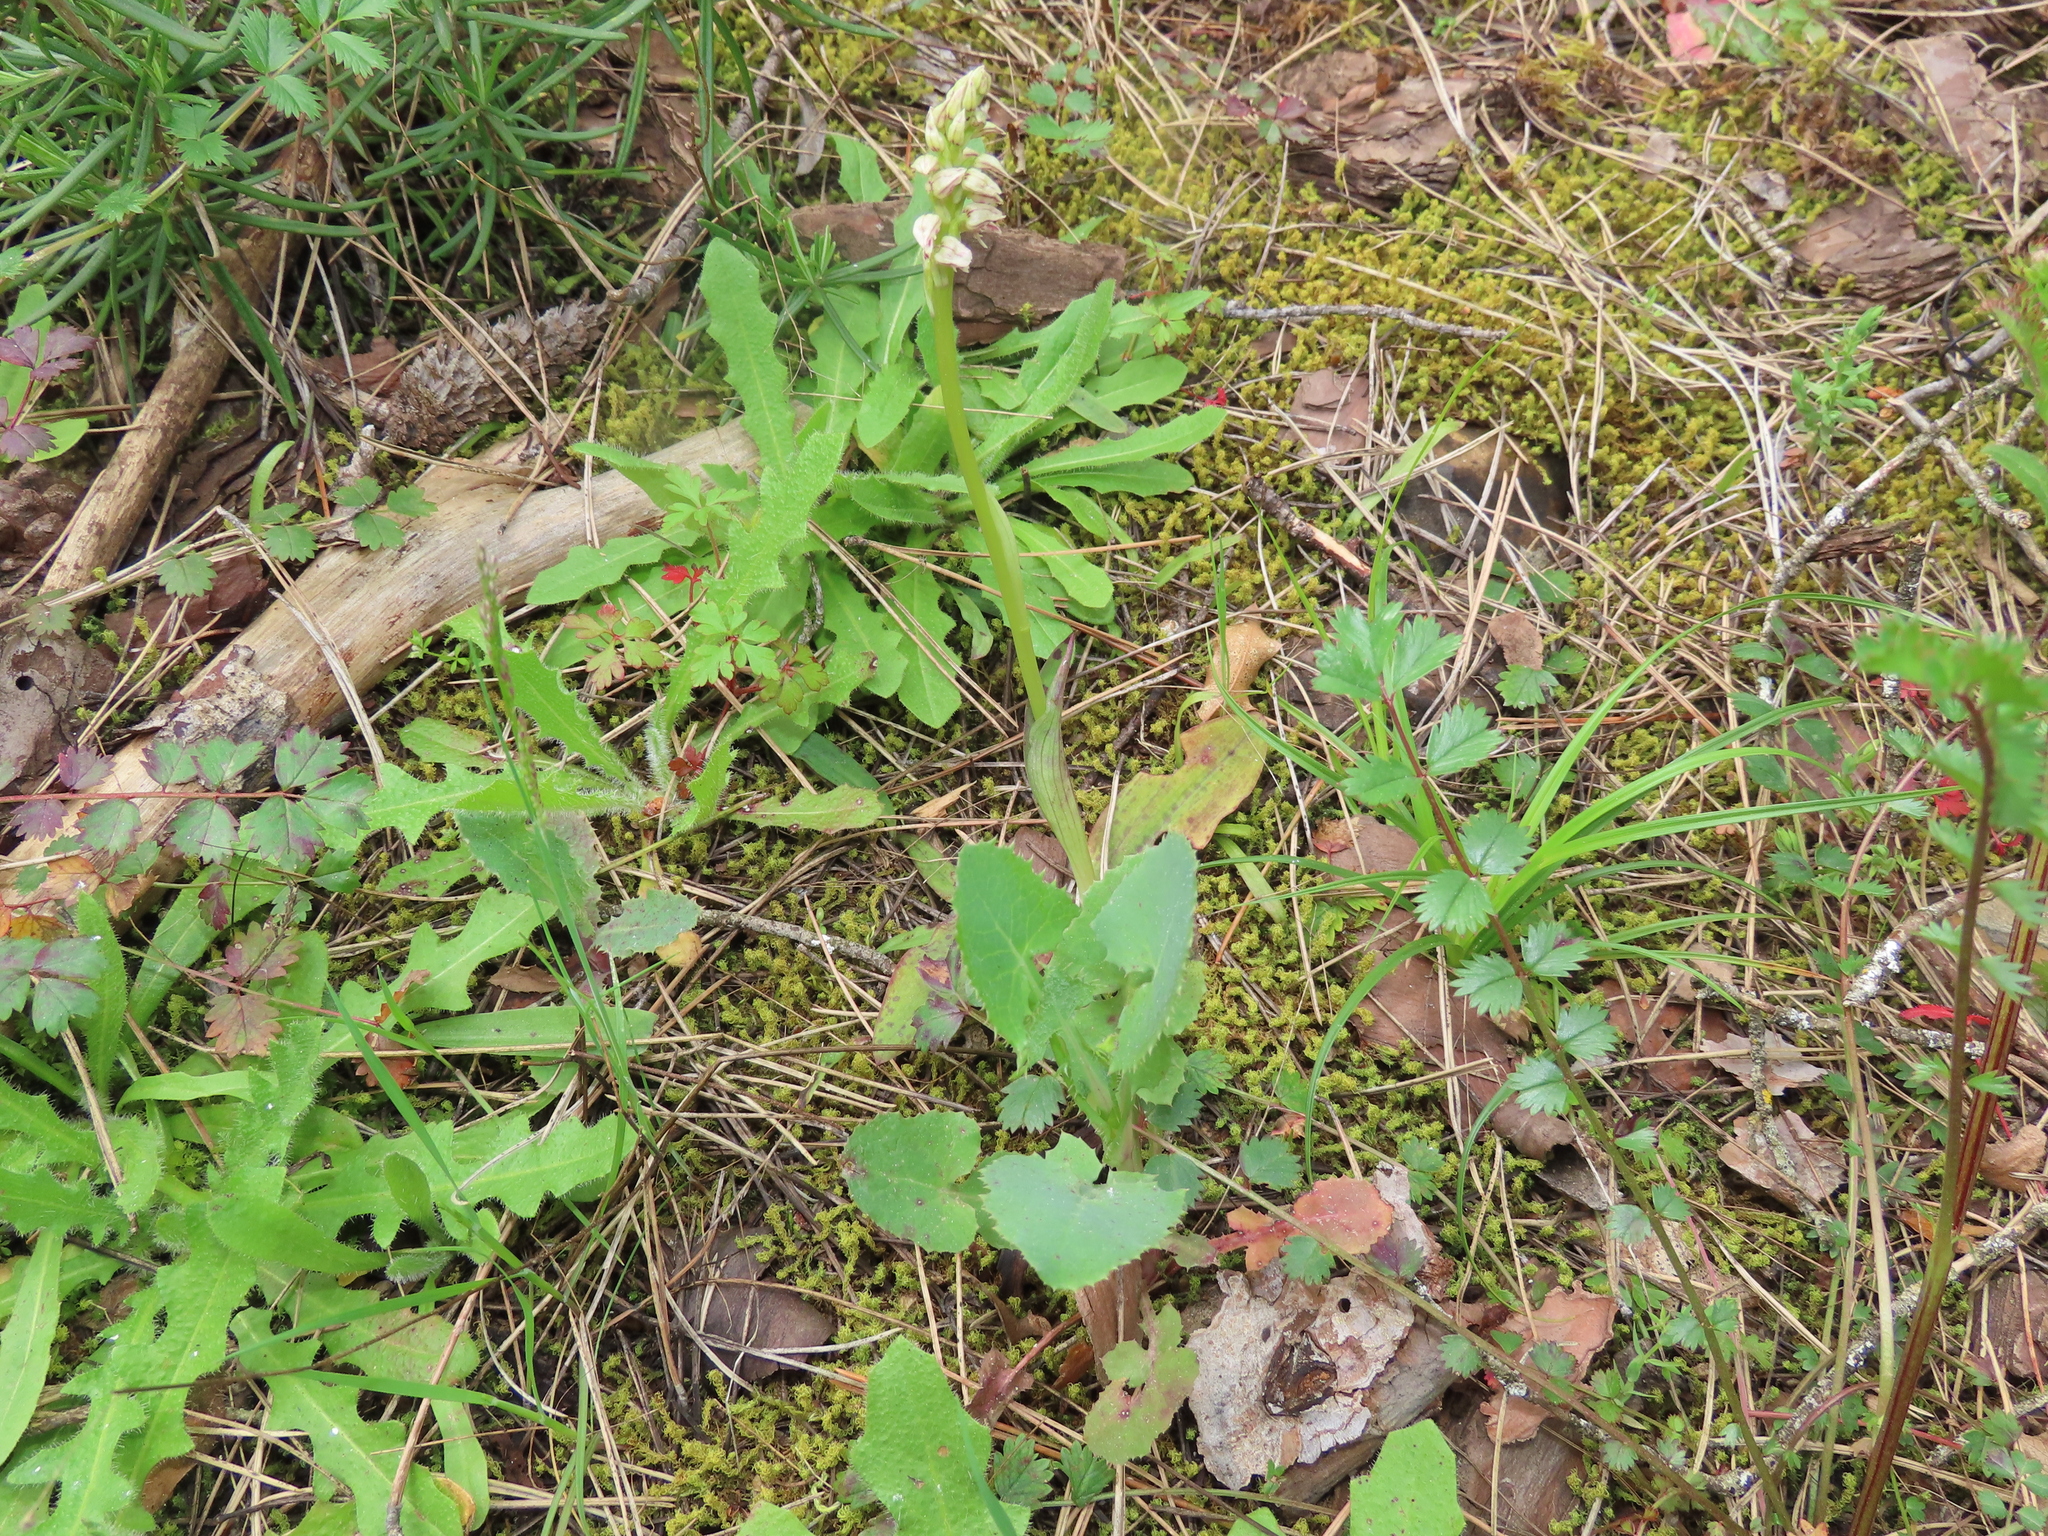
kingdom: Plantae
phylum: Tracheophyta
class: Liliopsida
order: Asparagales
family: Orchidaceae
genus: Neotinea
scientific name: Neotinea maculata
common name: Dense-flowered orchid
